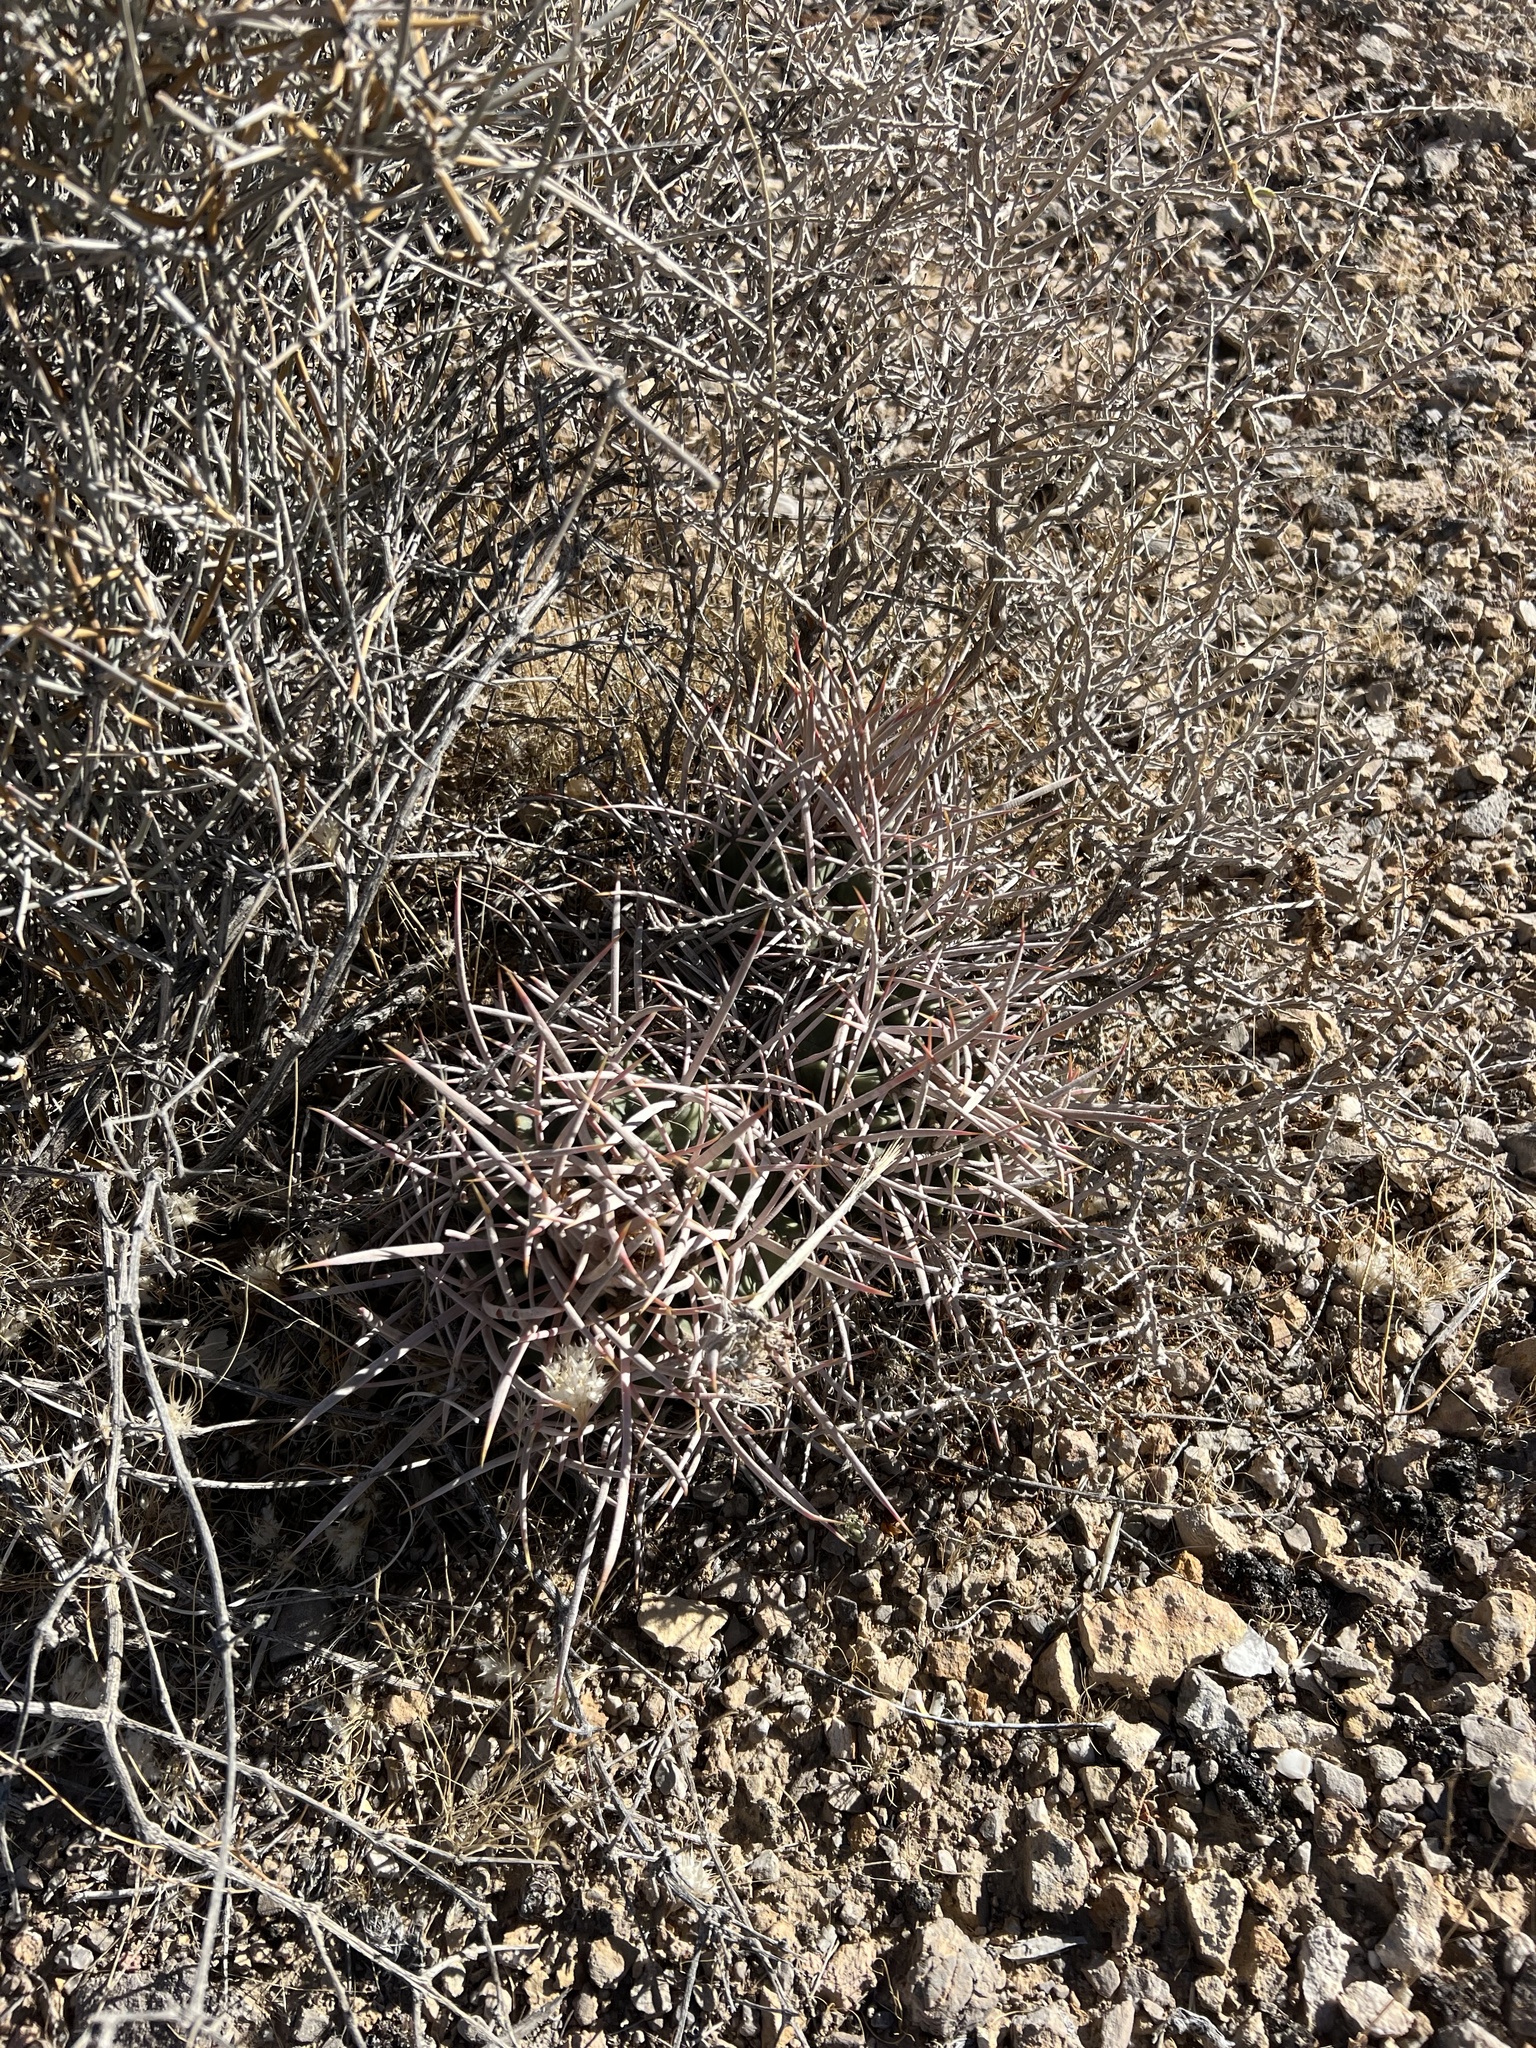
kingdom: Plantae
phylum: Tracheophyta
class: Magnoliopsida
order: Caryophyllales
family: Cactaceae
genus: Echinocactus
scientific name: Echinocactus polycephalus
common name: Cottontop cactus
